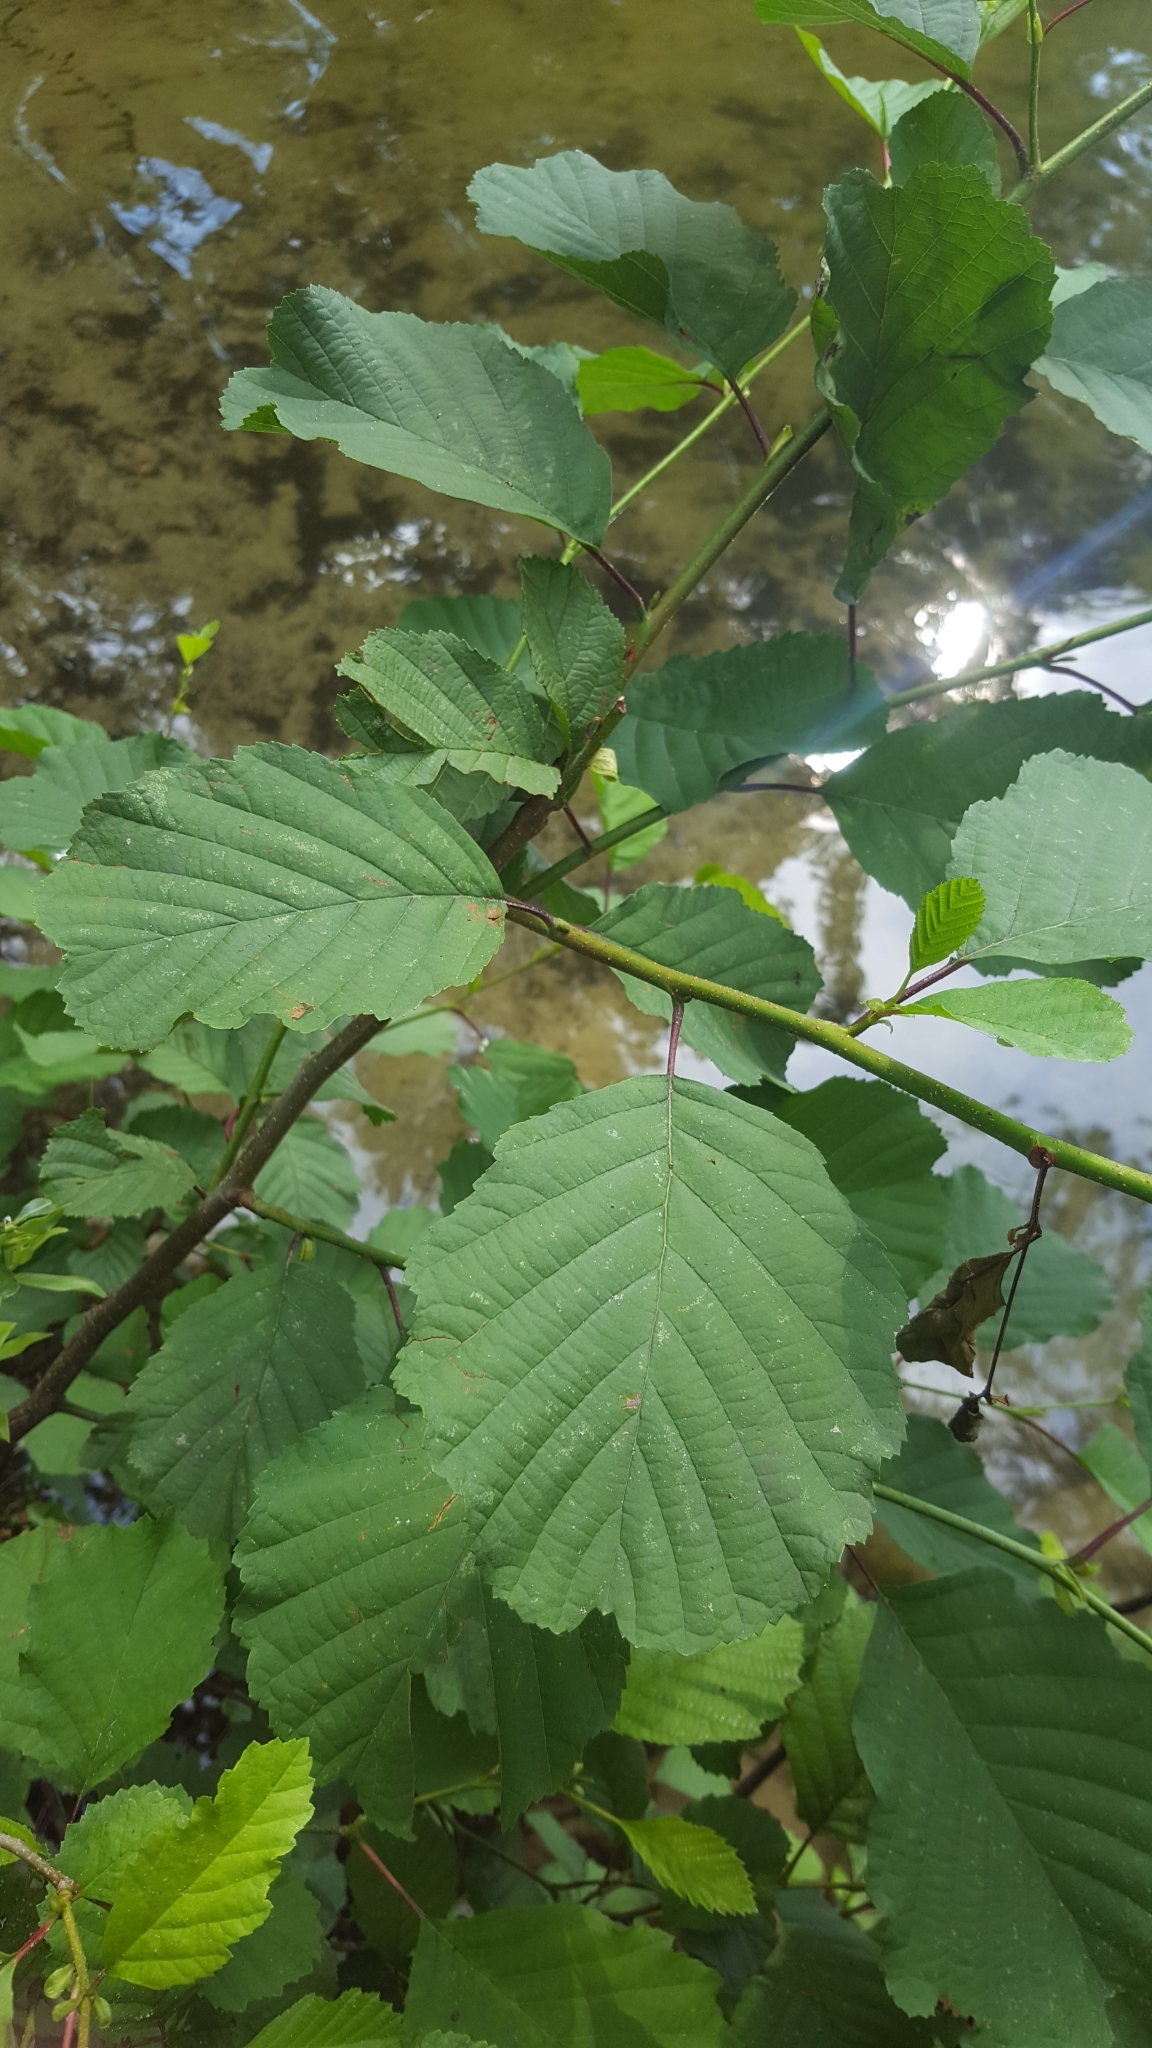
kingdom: Plantae
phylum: Tracheophyta
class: Magnoliopsida
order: Fagales
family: Betulaceae
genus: Alnus
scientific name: Alnus glutinosa
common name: Black alder
